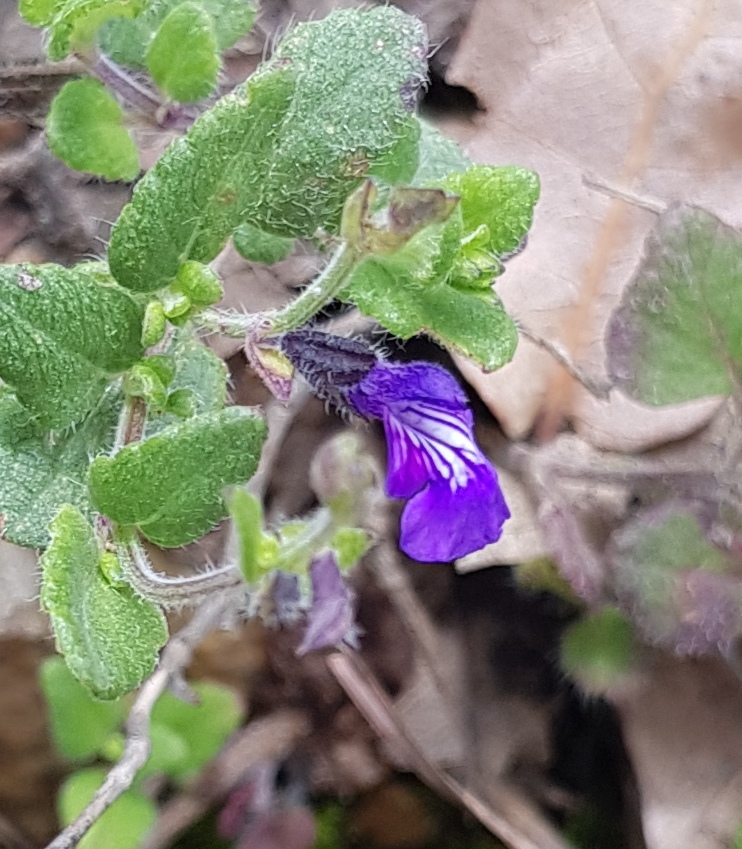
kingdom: Plantae
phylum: Tracheophyta
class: Magnoliopsida
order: Lamiales
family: Lamiaceae
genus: Salvia
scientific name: Salvia pusilla
